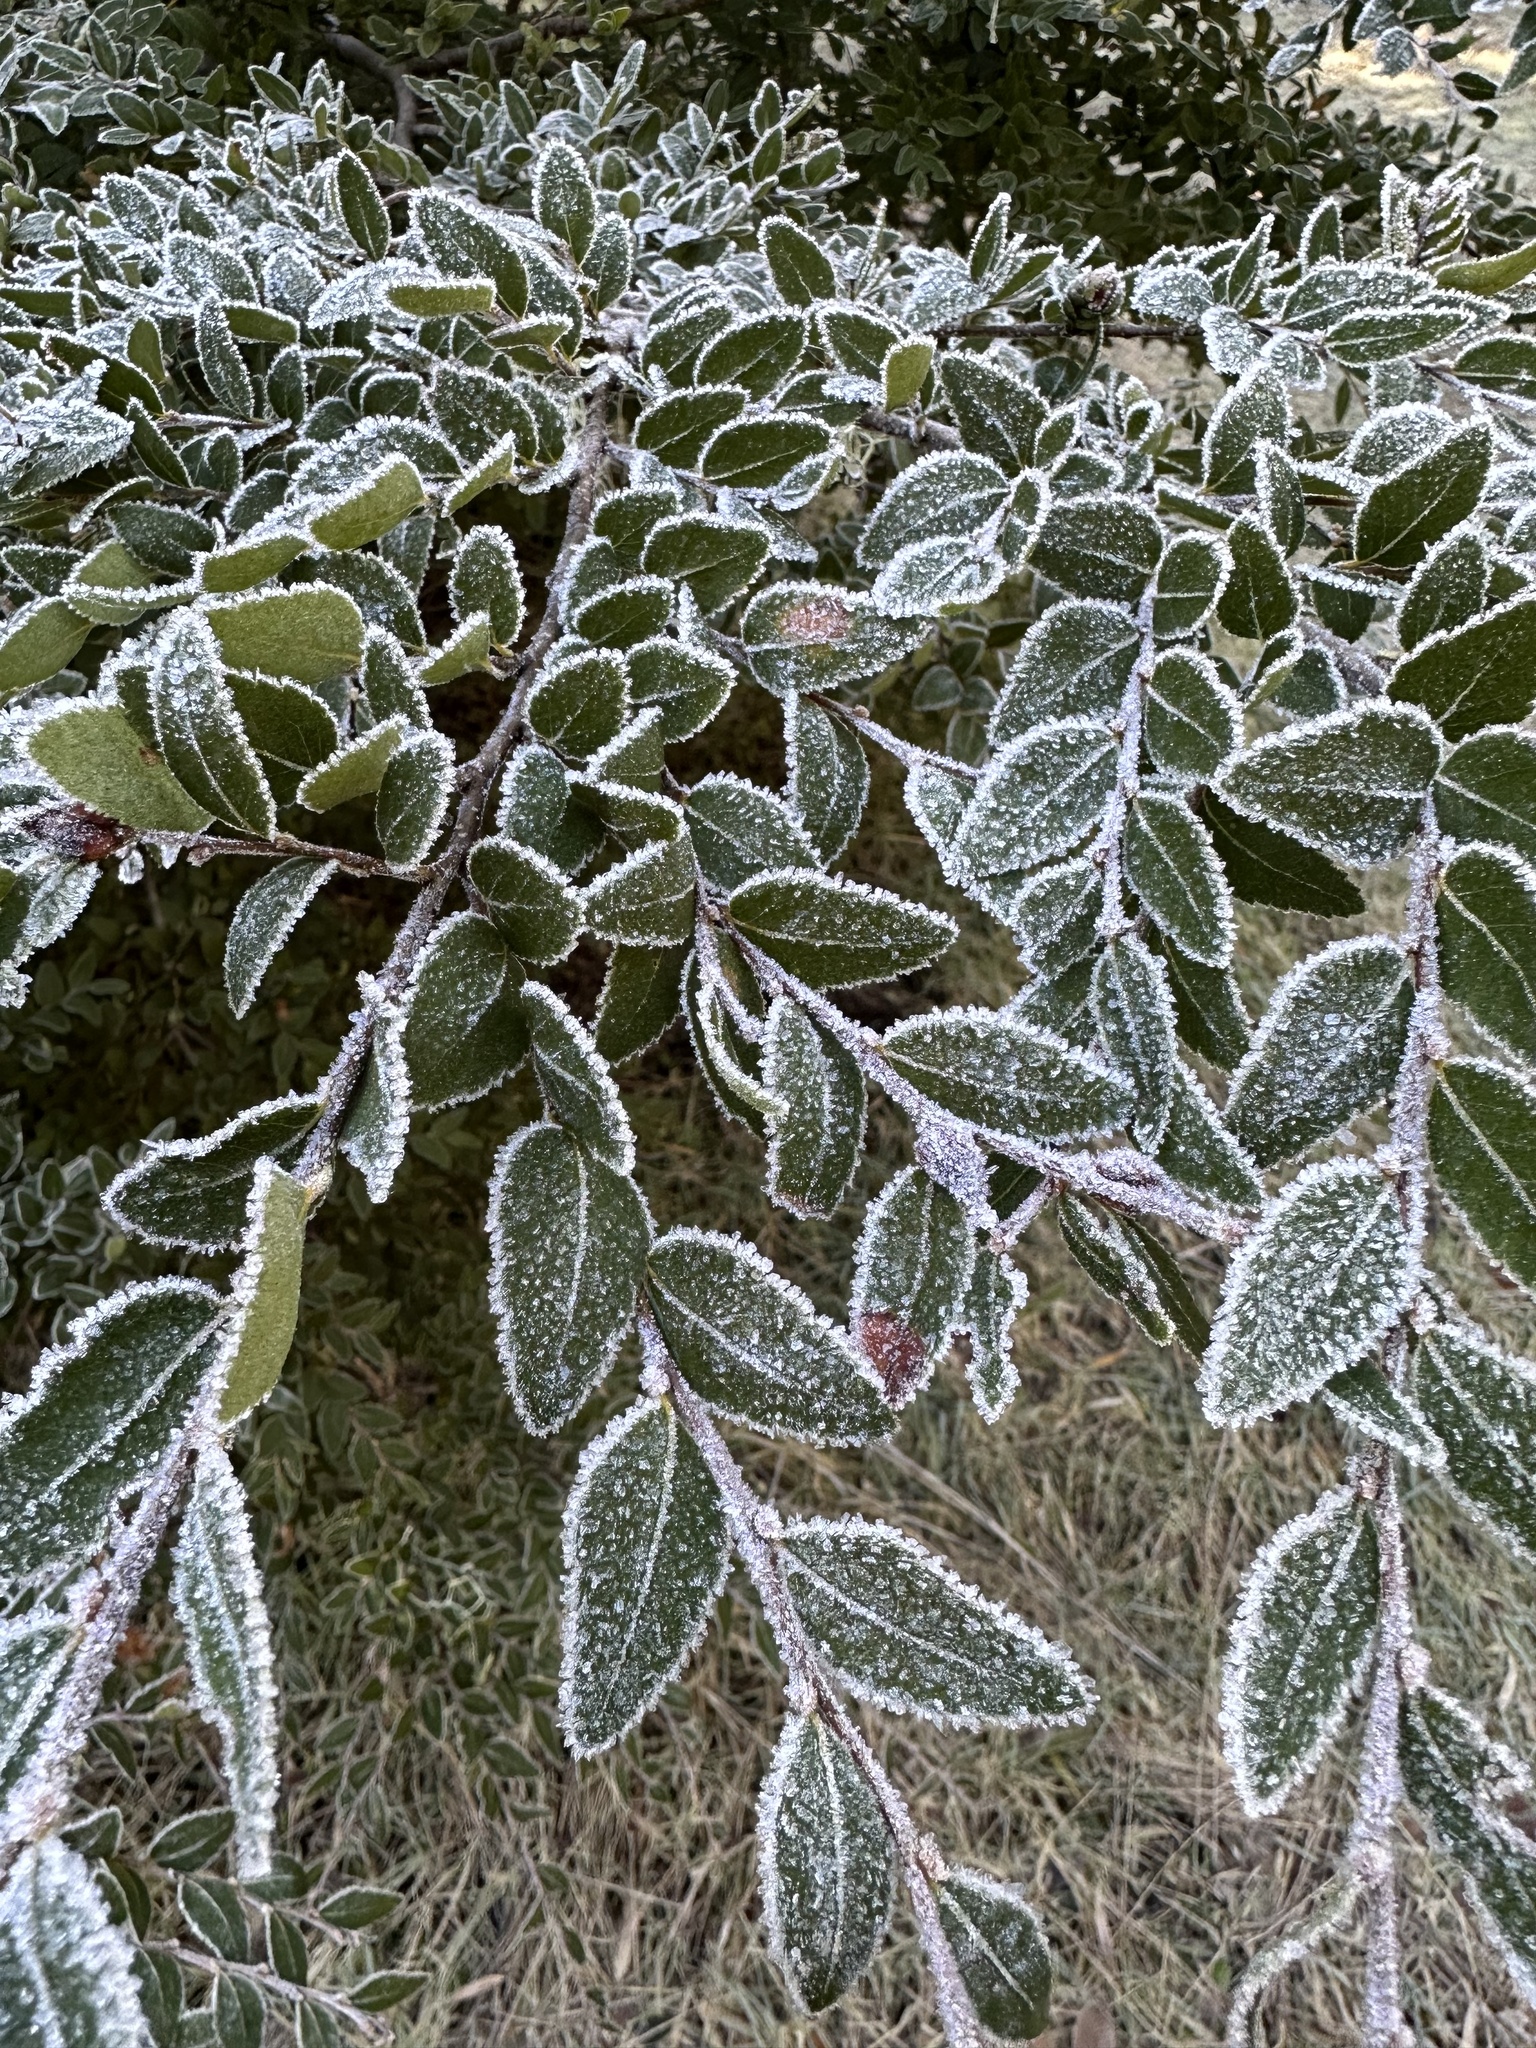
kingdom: Plantae
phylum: Tracheophyta
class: Magnoliopsida
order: Fagales
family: Nothofagaceae
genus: Nothofagus
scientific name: Nothofagus dombeyi
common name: Coigue
